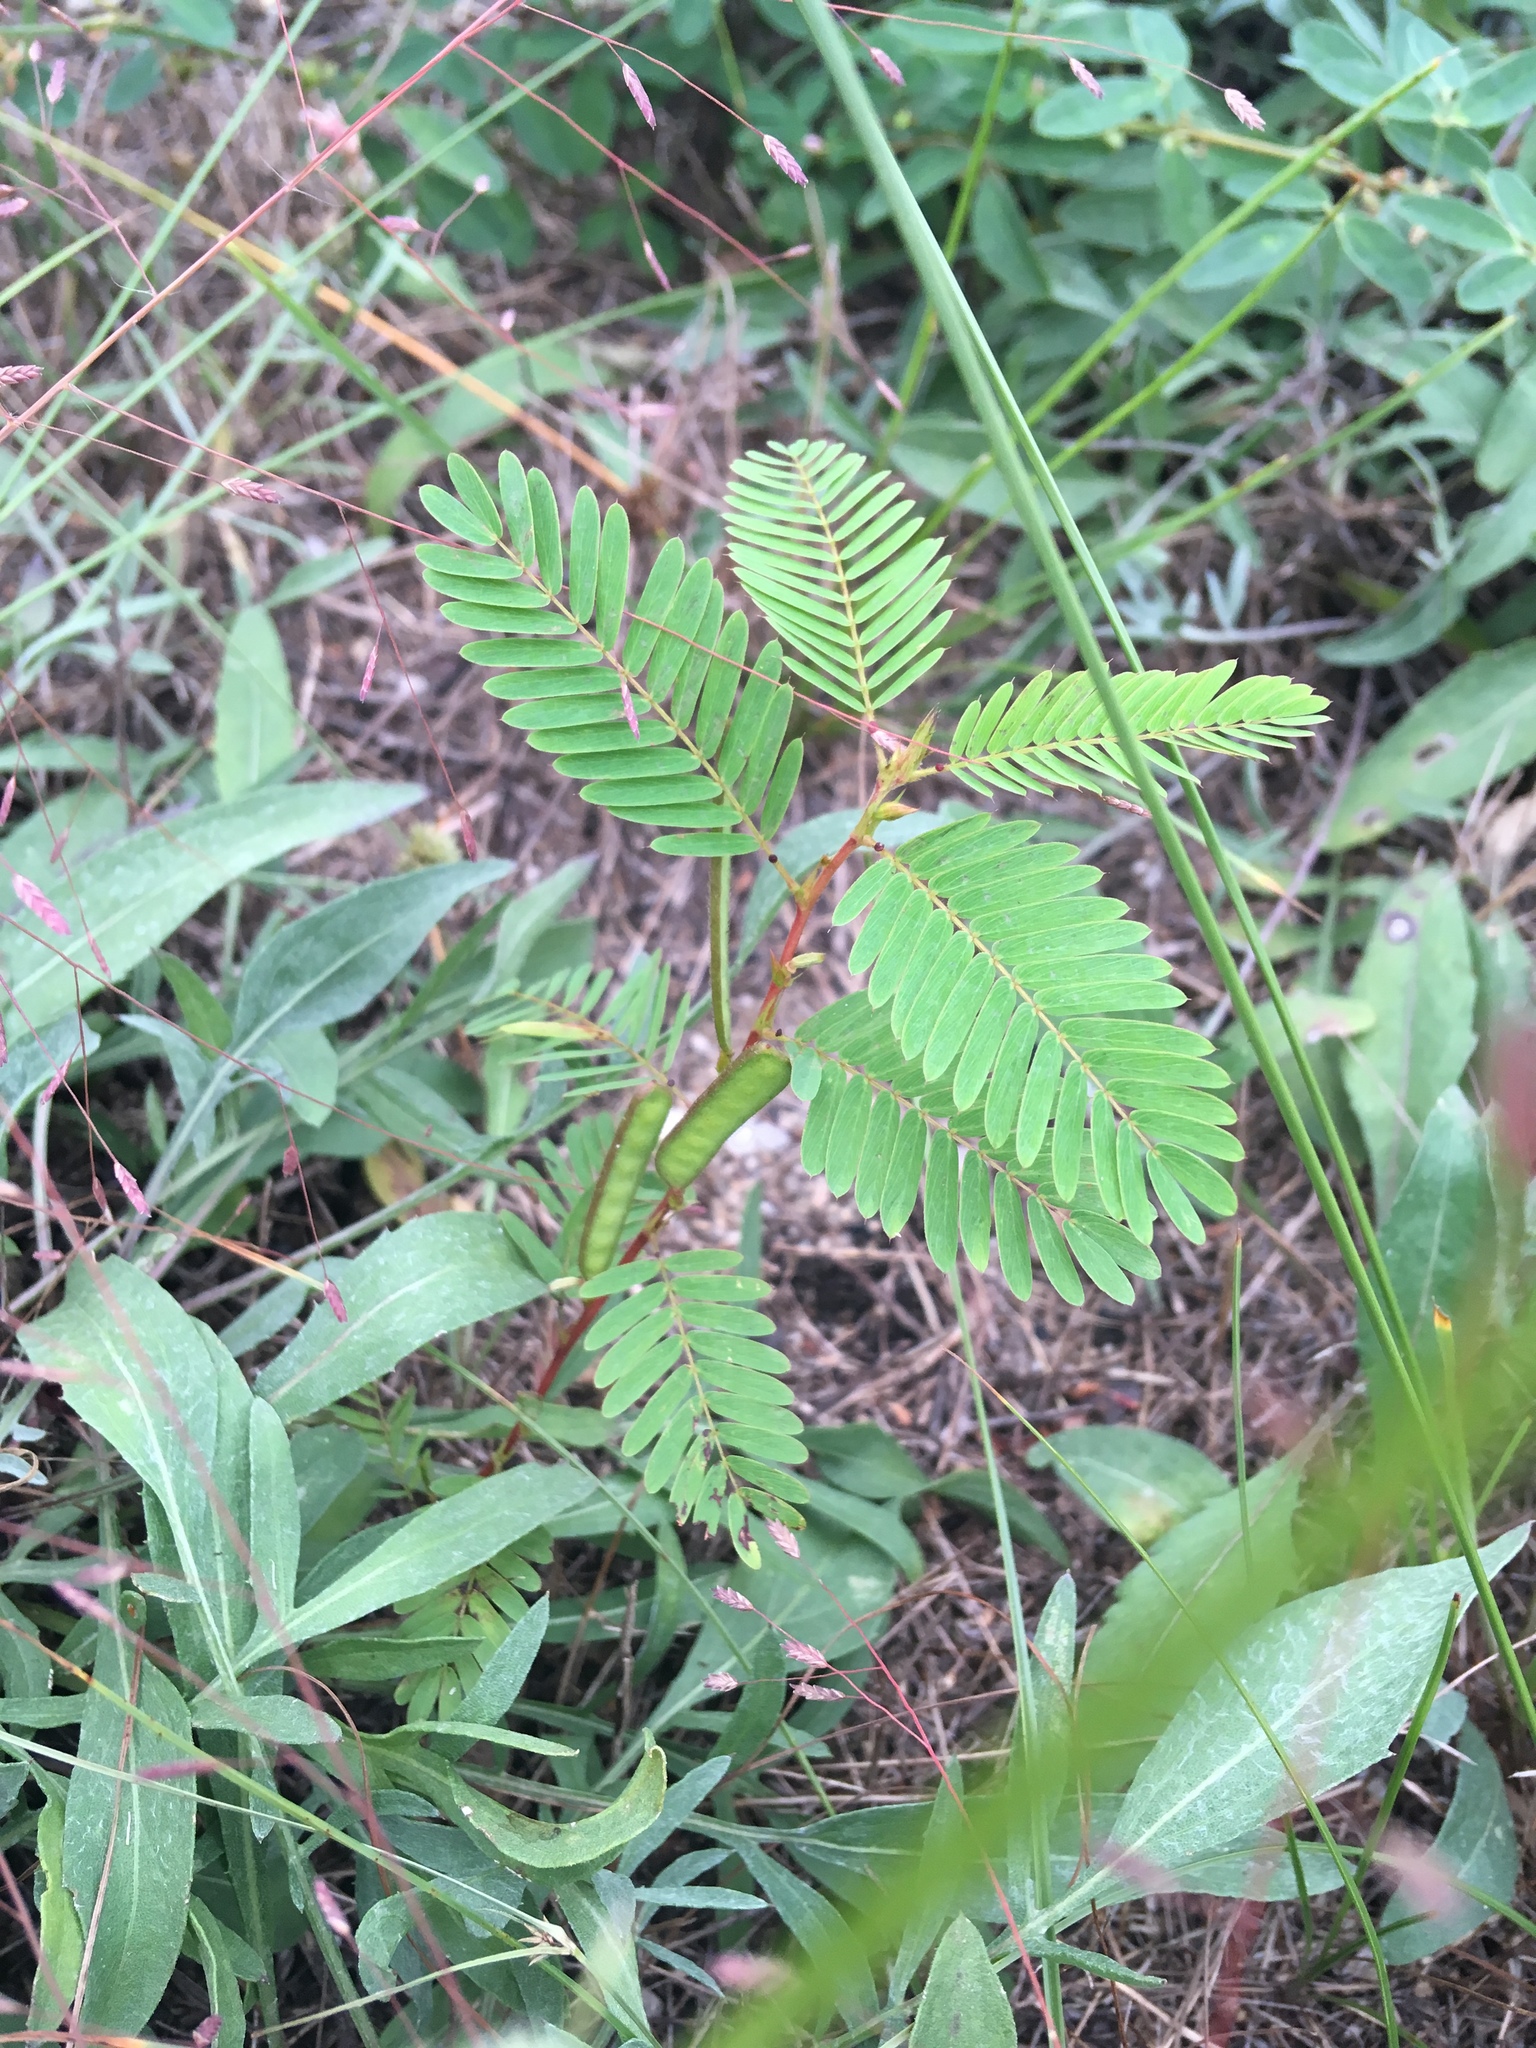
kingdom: Plantae
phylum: Tracheophyta
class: Magnoliopsida
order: Fabales
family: Fabaceae
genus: Chamaecrista
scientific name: Chamaecrista fasciculata
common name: Golden cassia
